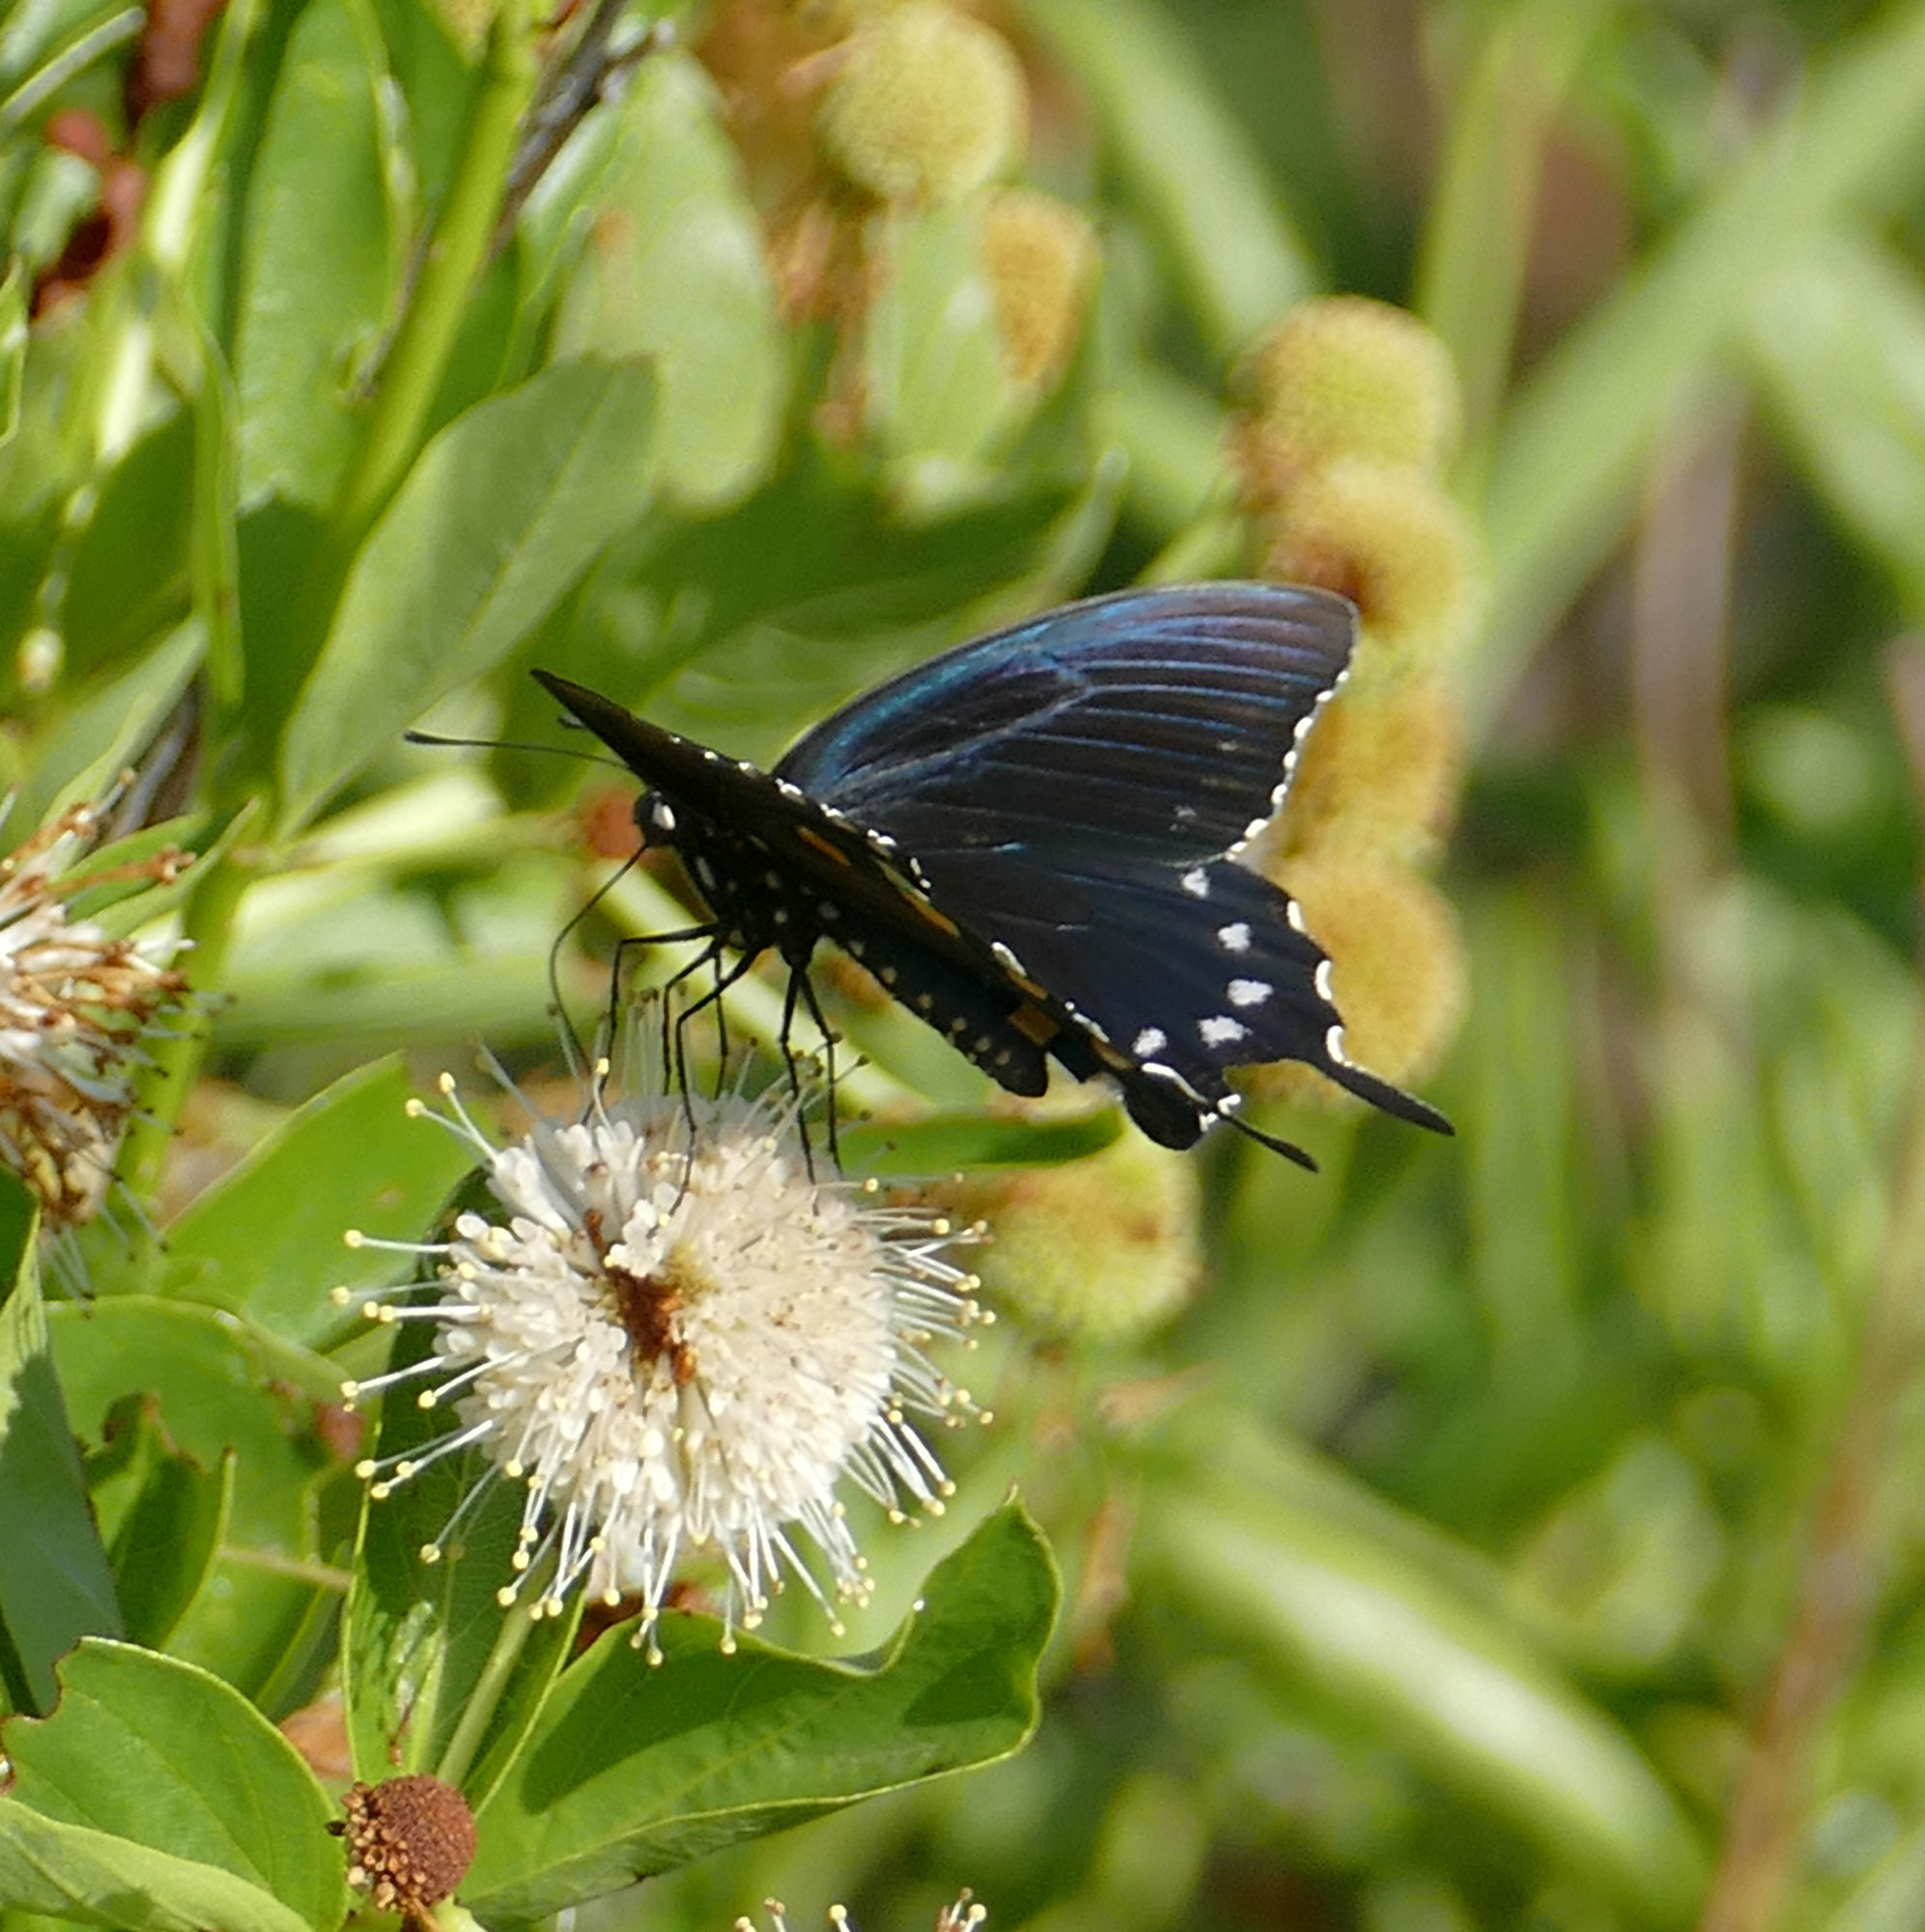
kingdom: Animalia
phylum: Arthropoda
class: Insecta
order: Lepidoptera
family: Papilionidae
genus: Battus
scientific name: Battus philenor
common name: Pipevine swallowtail
